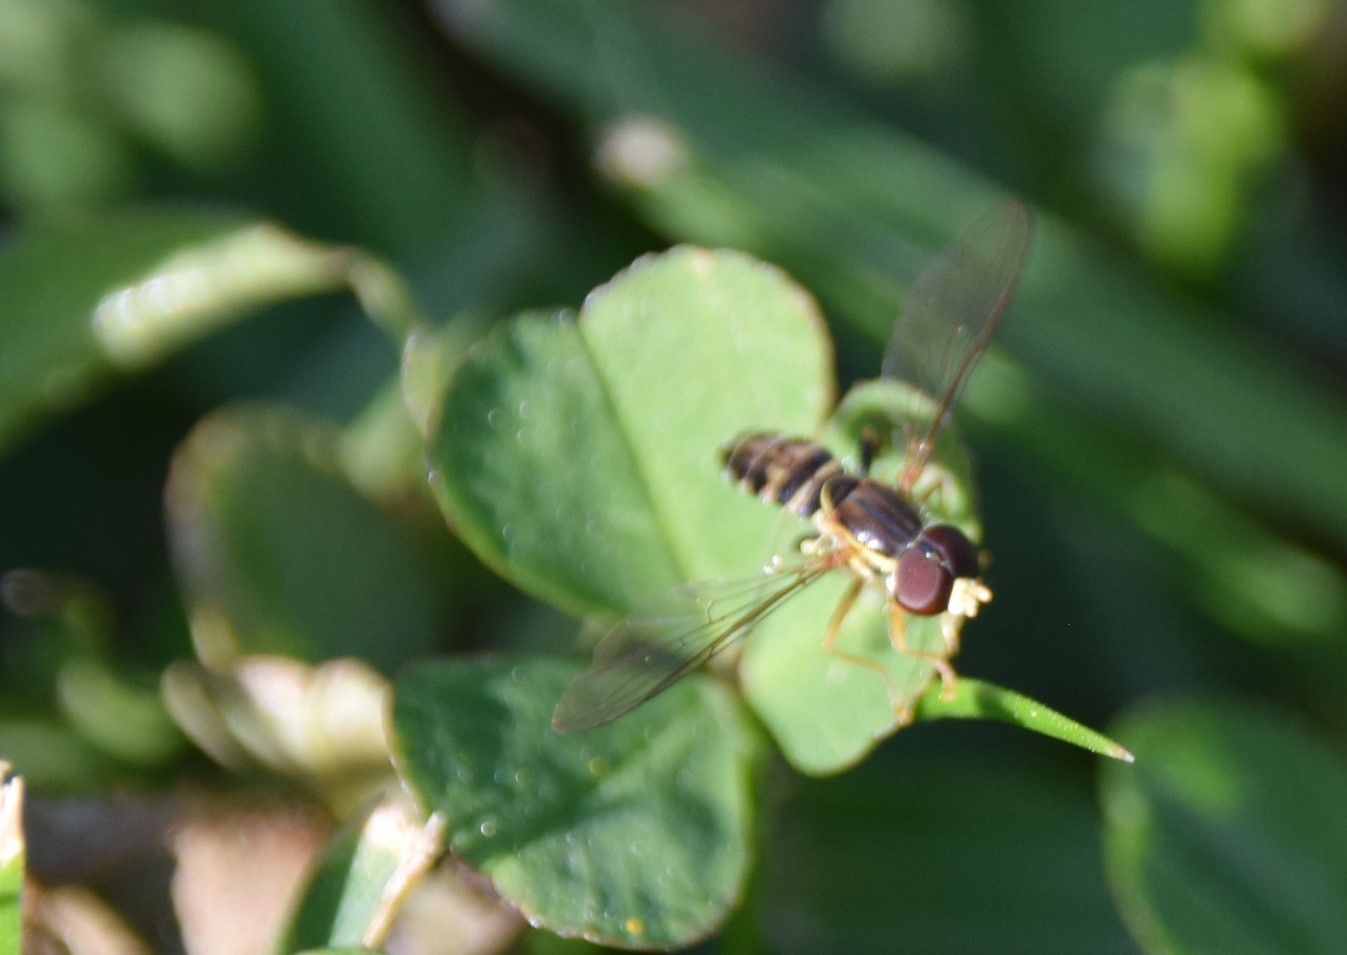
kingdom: Animalia
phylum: Arthropoda
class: Insecta
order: Diptera
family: Syrphidae
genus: Toxomerus
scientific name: Toxomerus geminatus
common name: Eastern calligrapher
